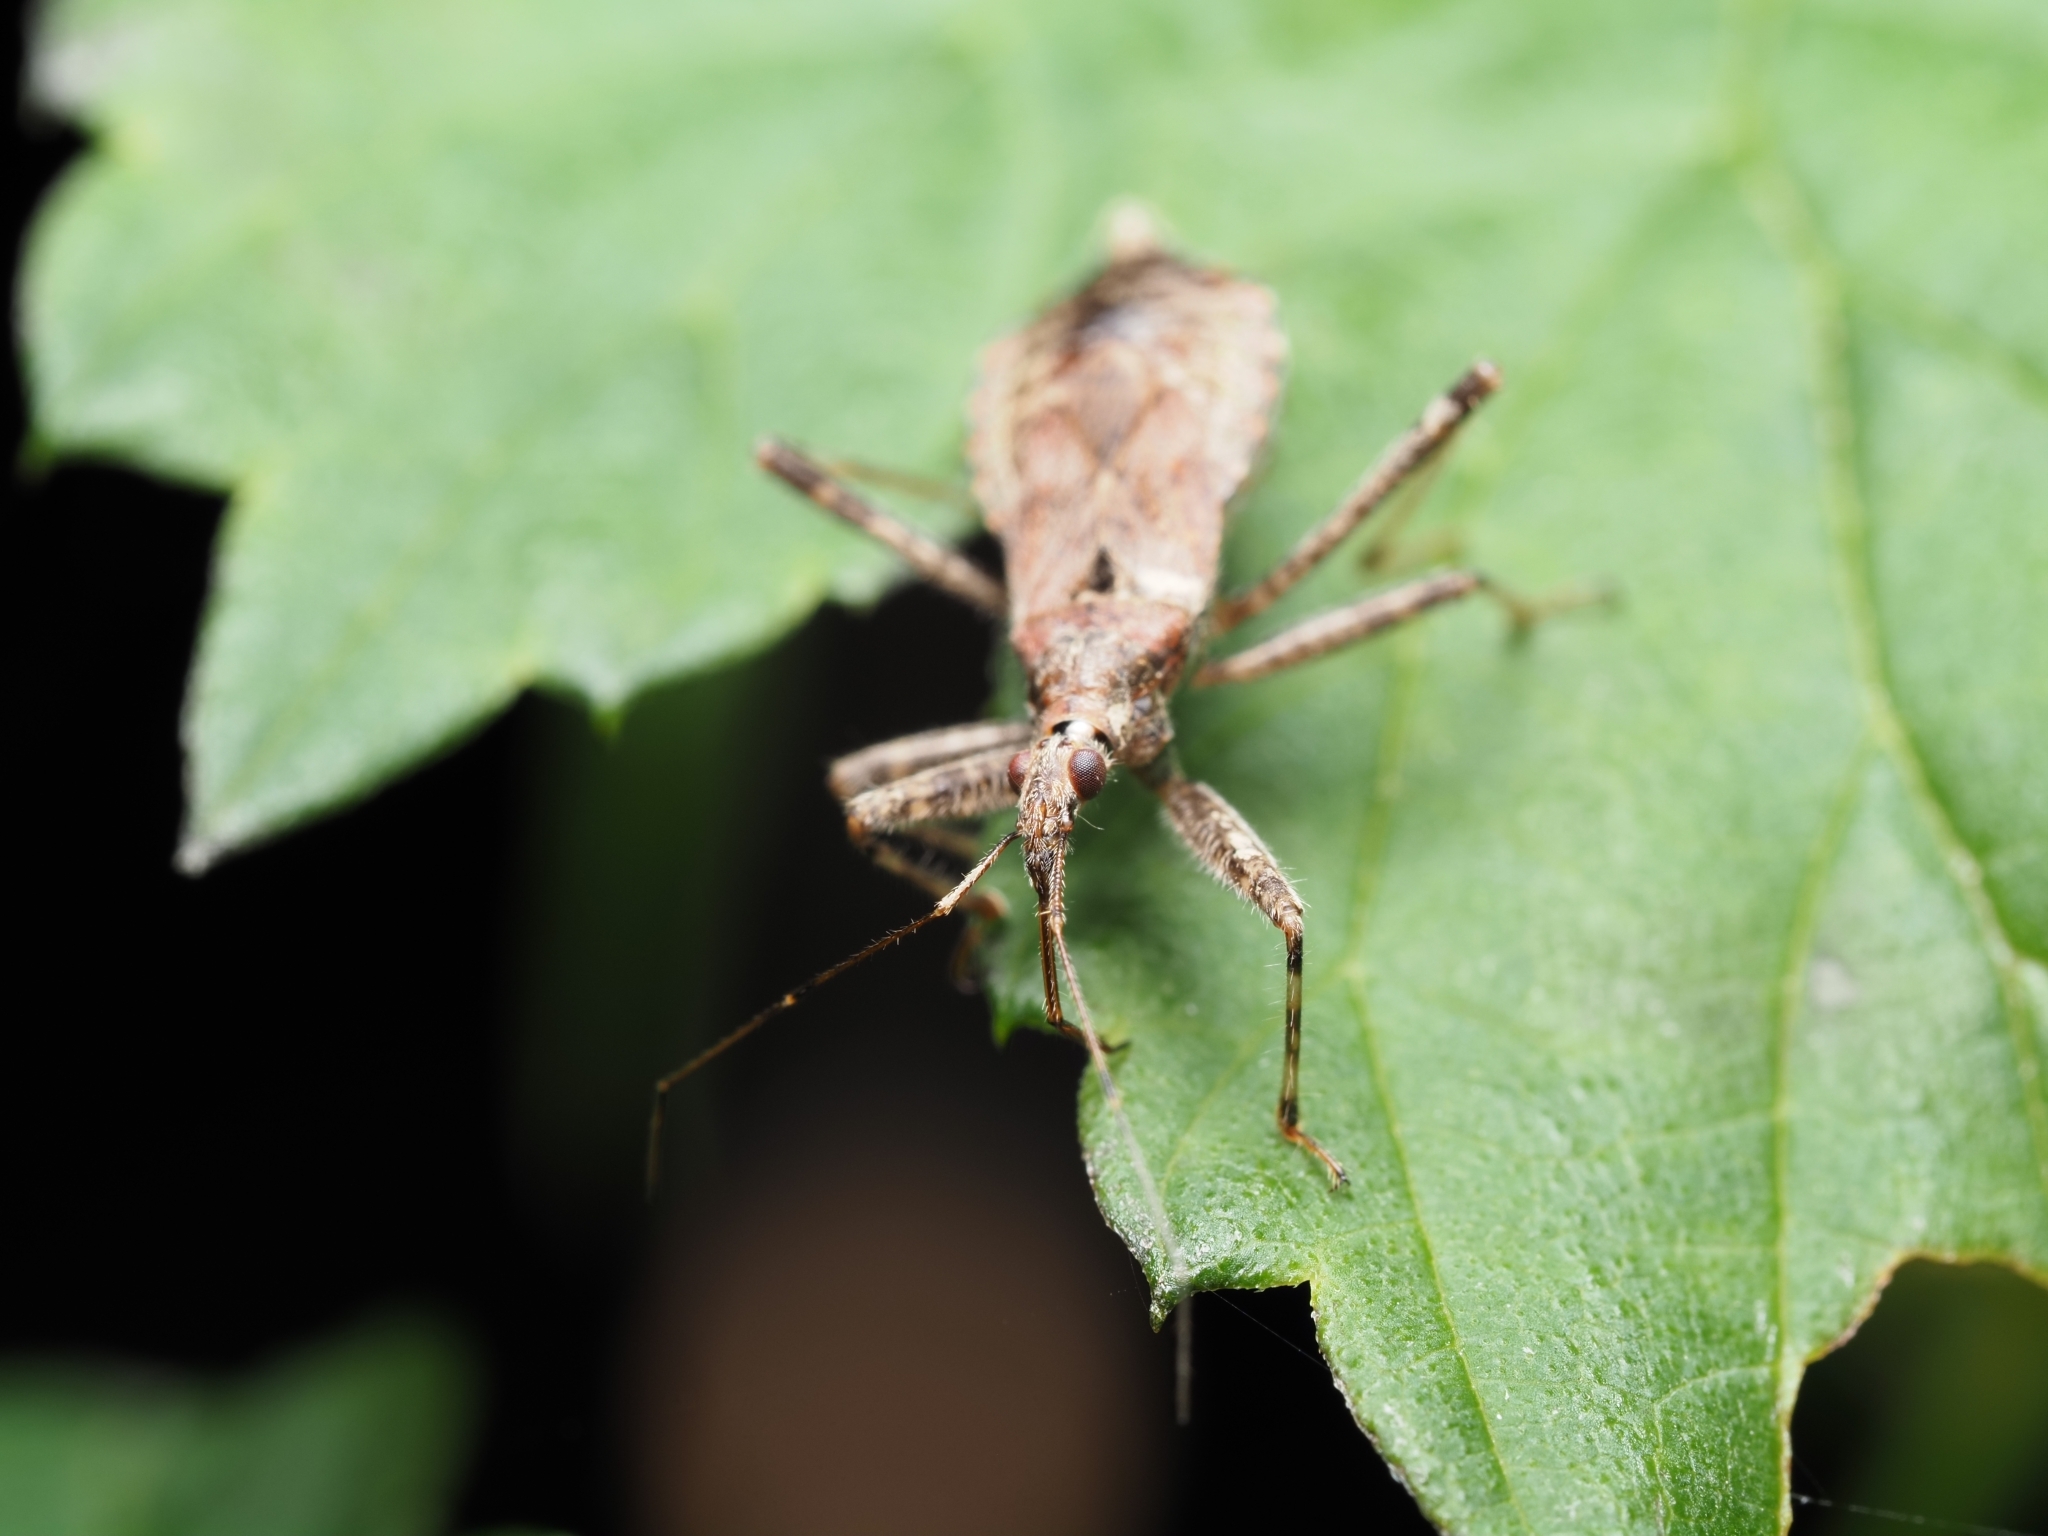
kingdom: Animalia
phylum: Arthropoda
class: Insecta
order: Hemiptera
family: Nabidae
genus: Himacerus
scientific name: Himacerus apterus
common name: Tree damsel bug
